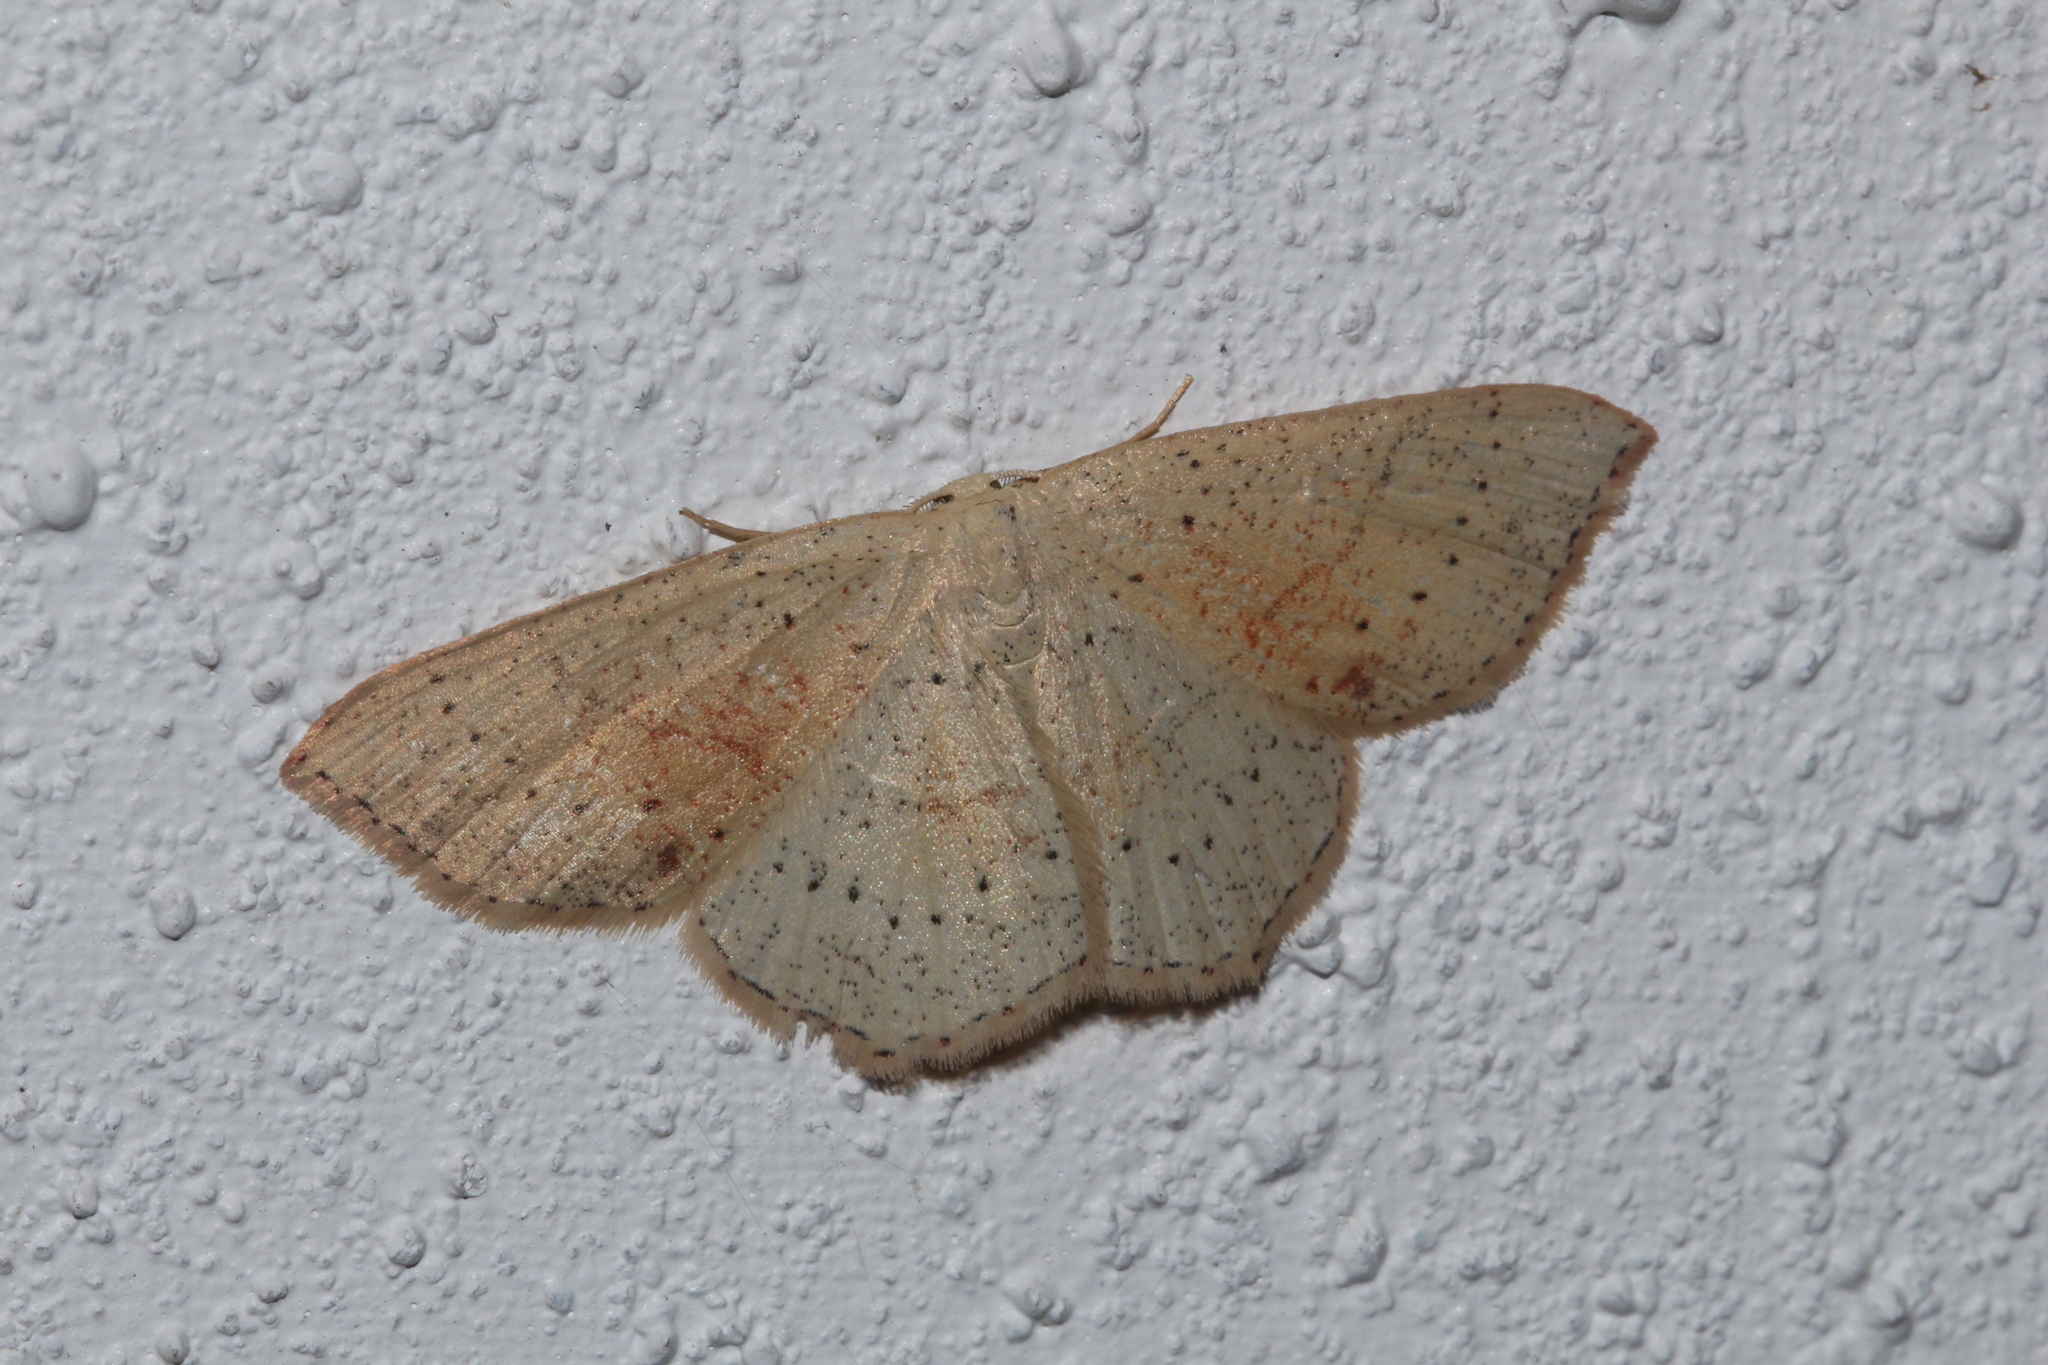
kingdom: Animalia
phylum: Arthropoda
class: Insecta
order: Lepidoptera
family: Geometridae
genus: Cyclophora
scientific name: Cyclophora punctaria
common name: Maiden's blush
